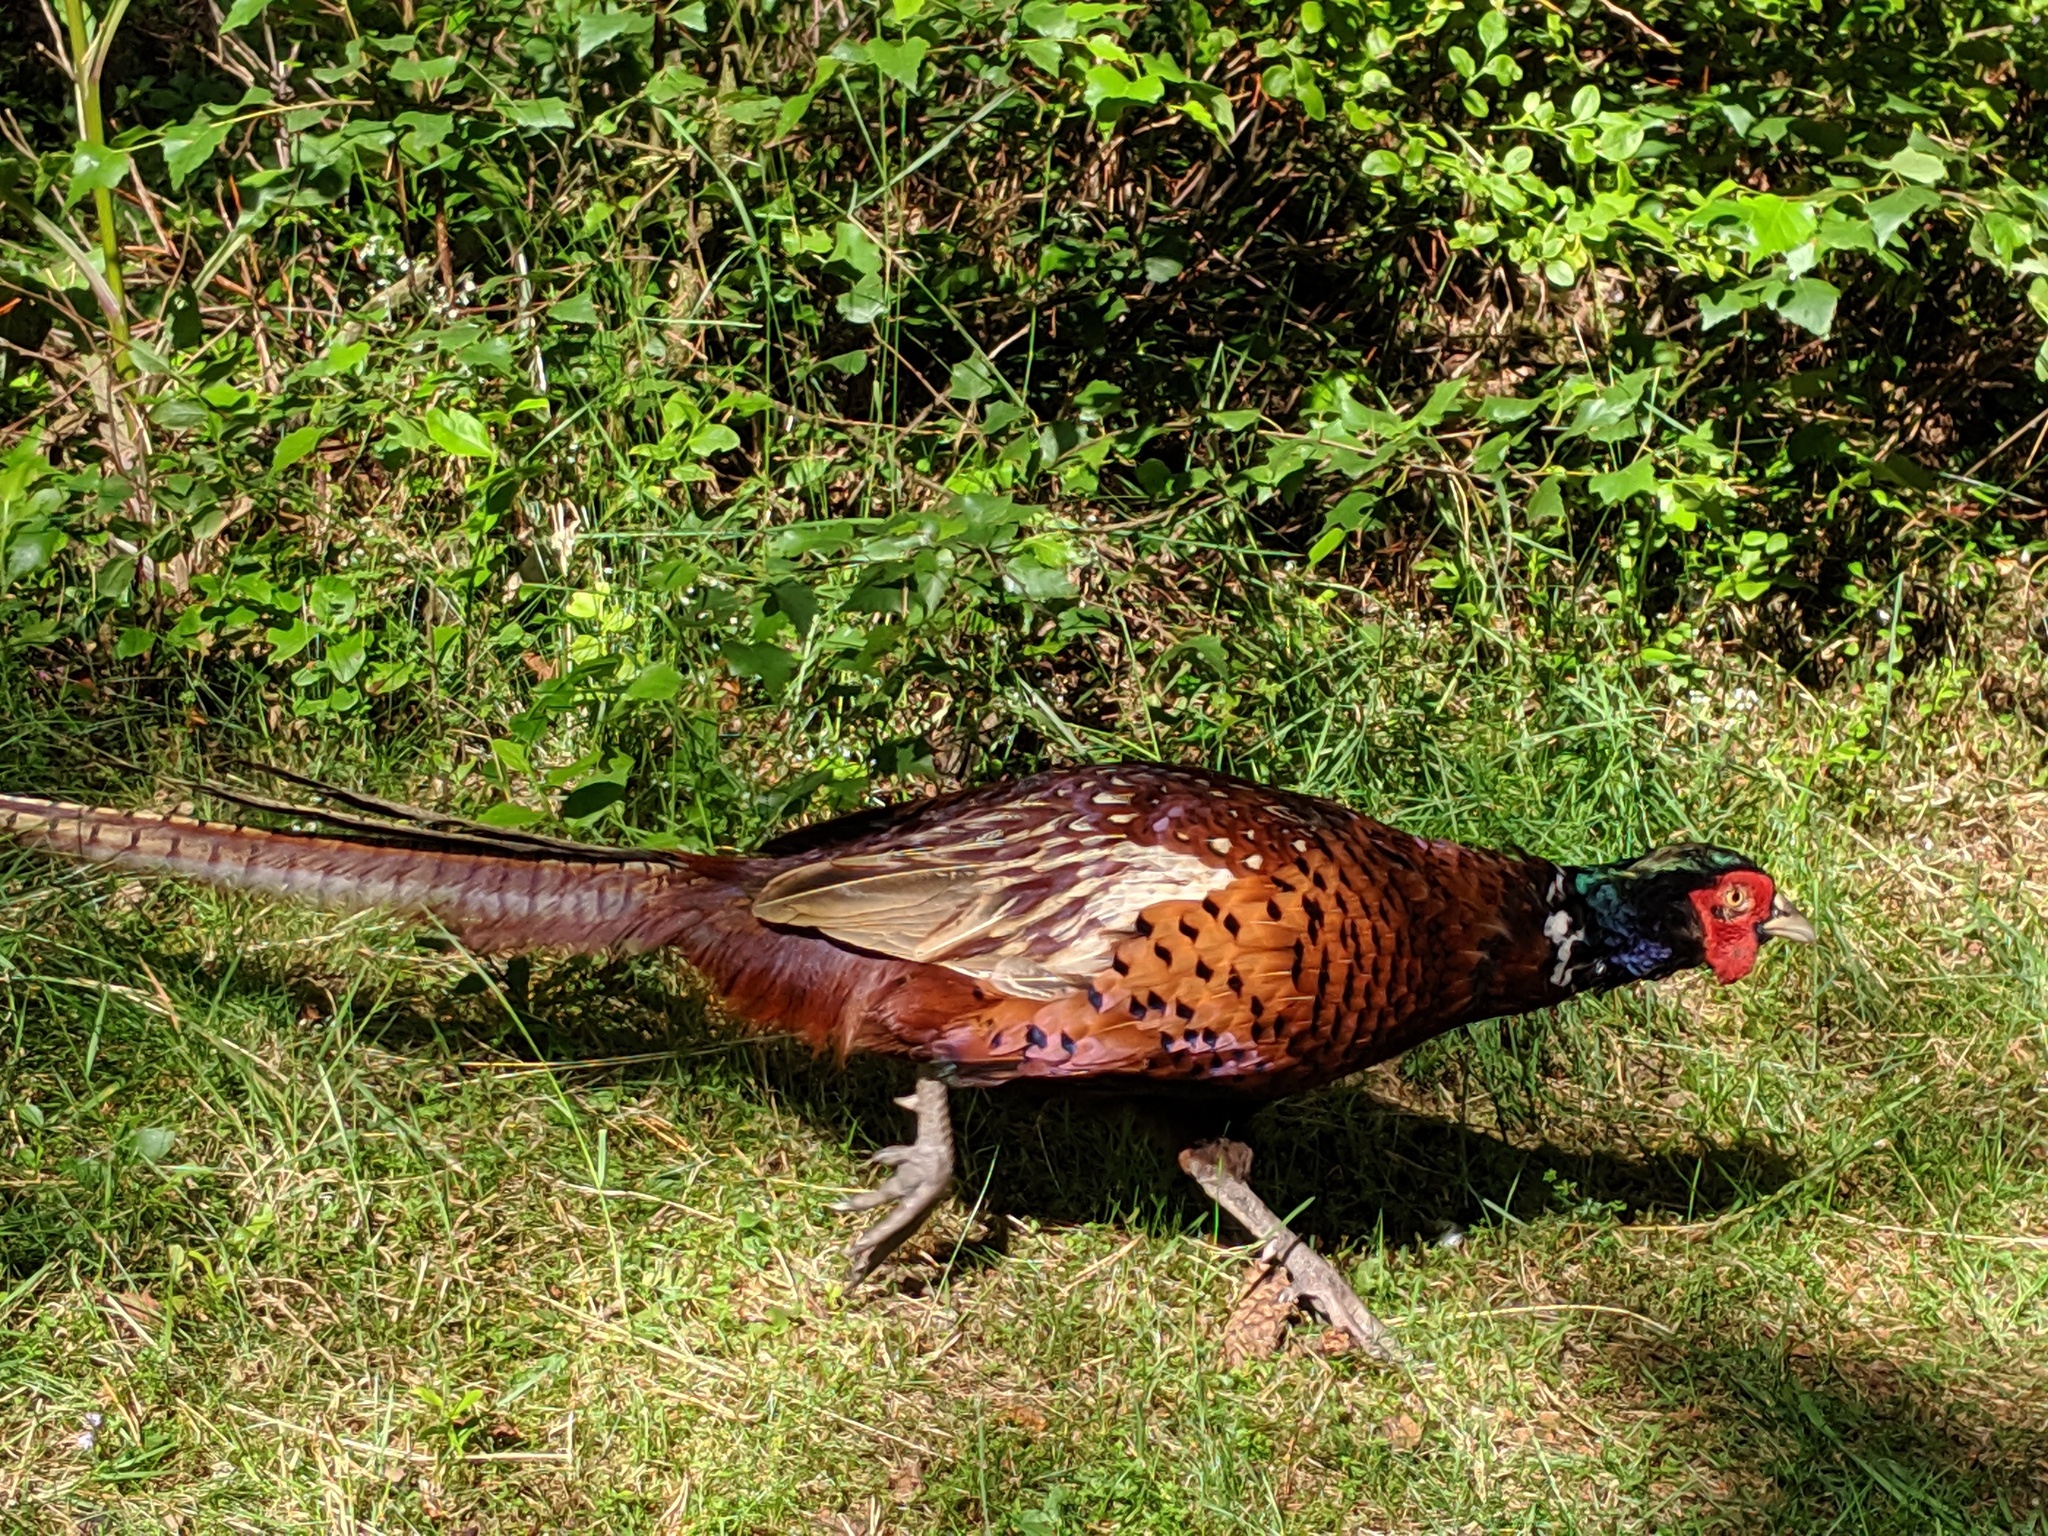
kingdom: Animalia
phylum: Chordata
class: Aves
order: Galliformes
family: Phasianidae
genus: Phasianus
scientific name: Phasianus colchicus
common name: Common pheasant
